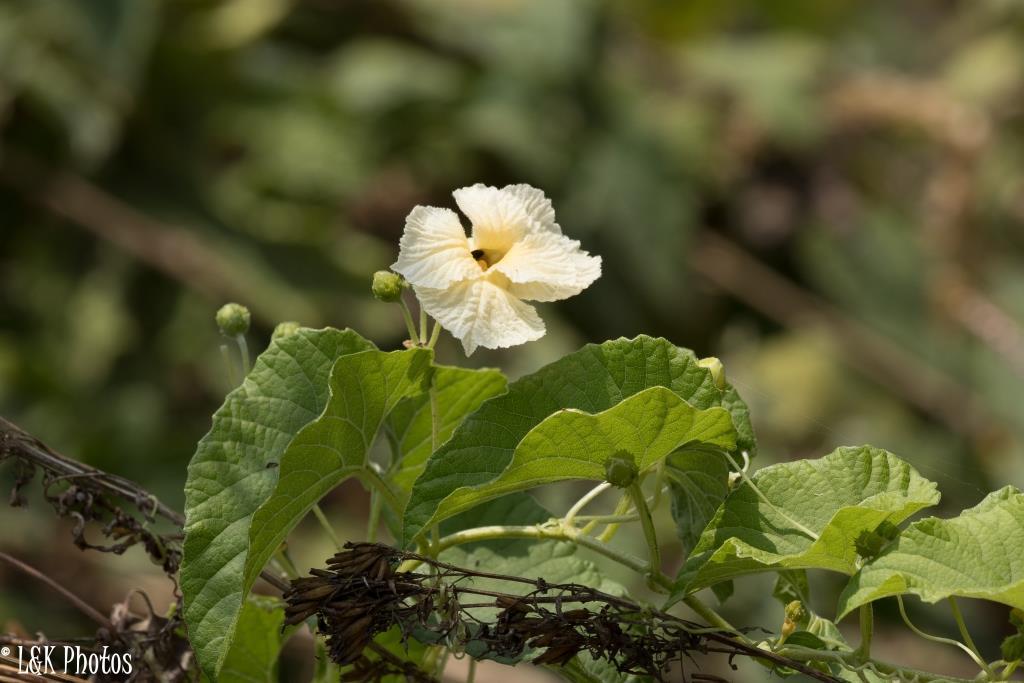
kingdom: Plantae
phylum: Tracheophyta
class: Magnoliopsida
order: Cucurbitales
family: Cucurbitaceae
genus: Momordica
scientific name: Momordica foetida
